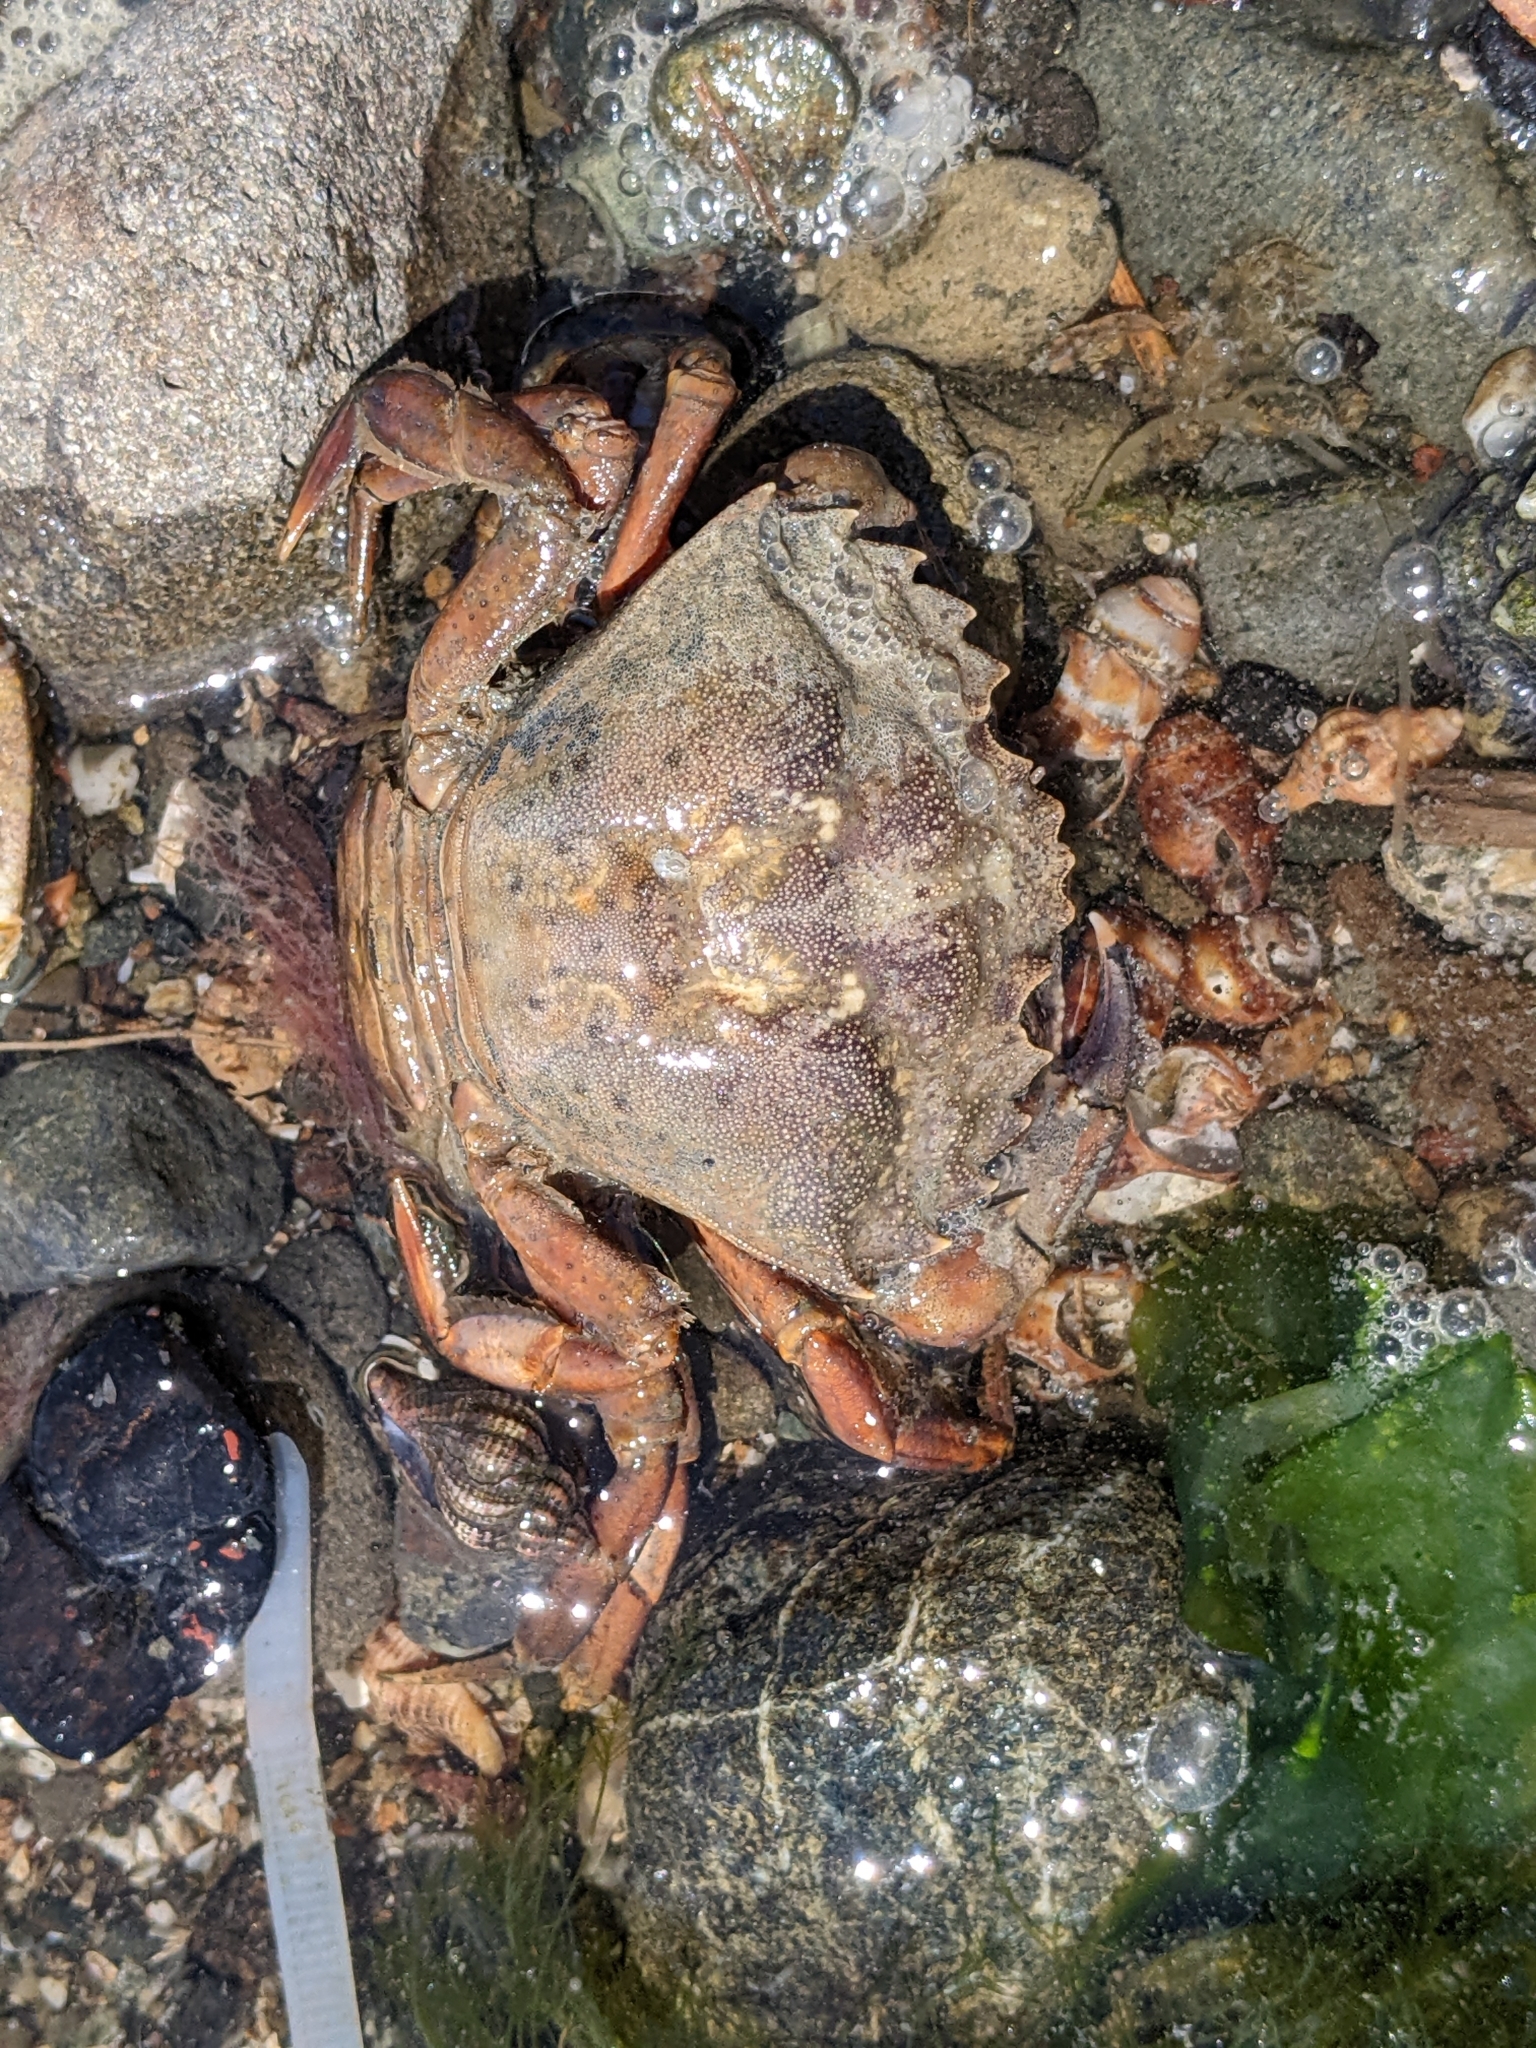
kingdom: Animalia
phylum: Arthropoda
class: Malacostraca
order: Decapoda
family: Carcinidae
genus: Carcinus
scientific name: Carcinus maenas
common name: European green crab
